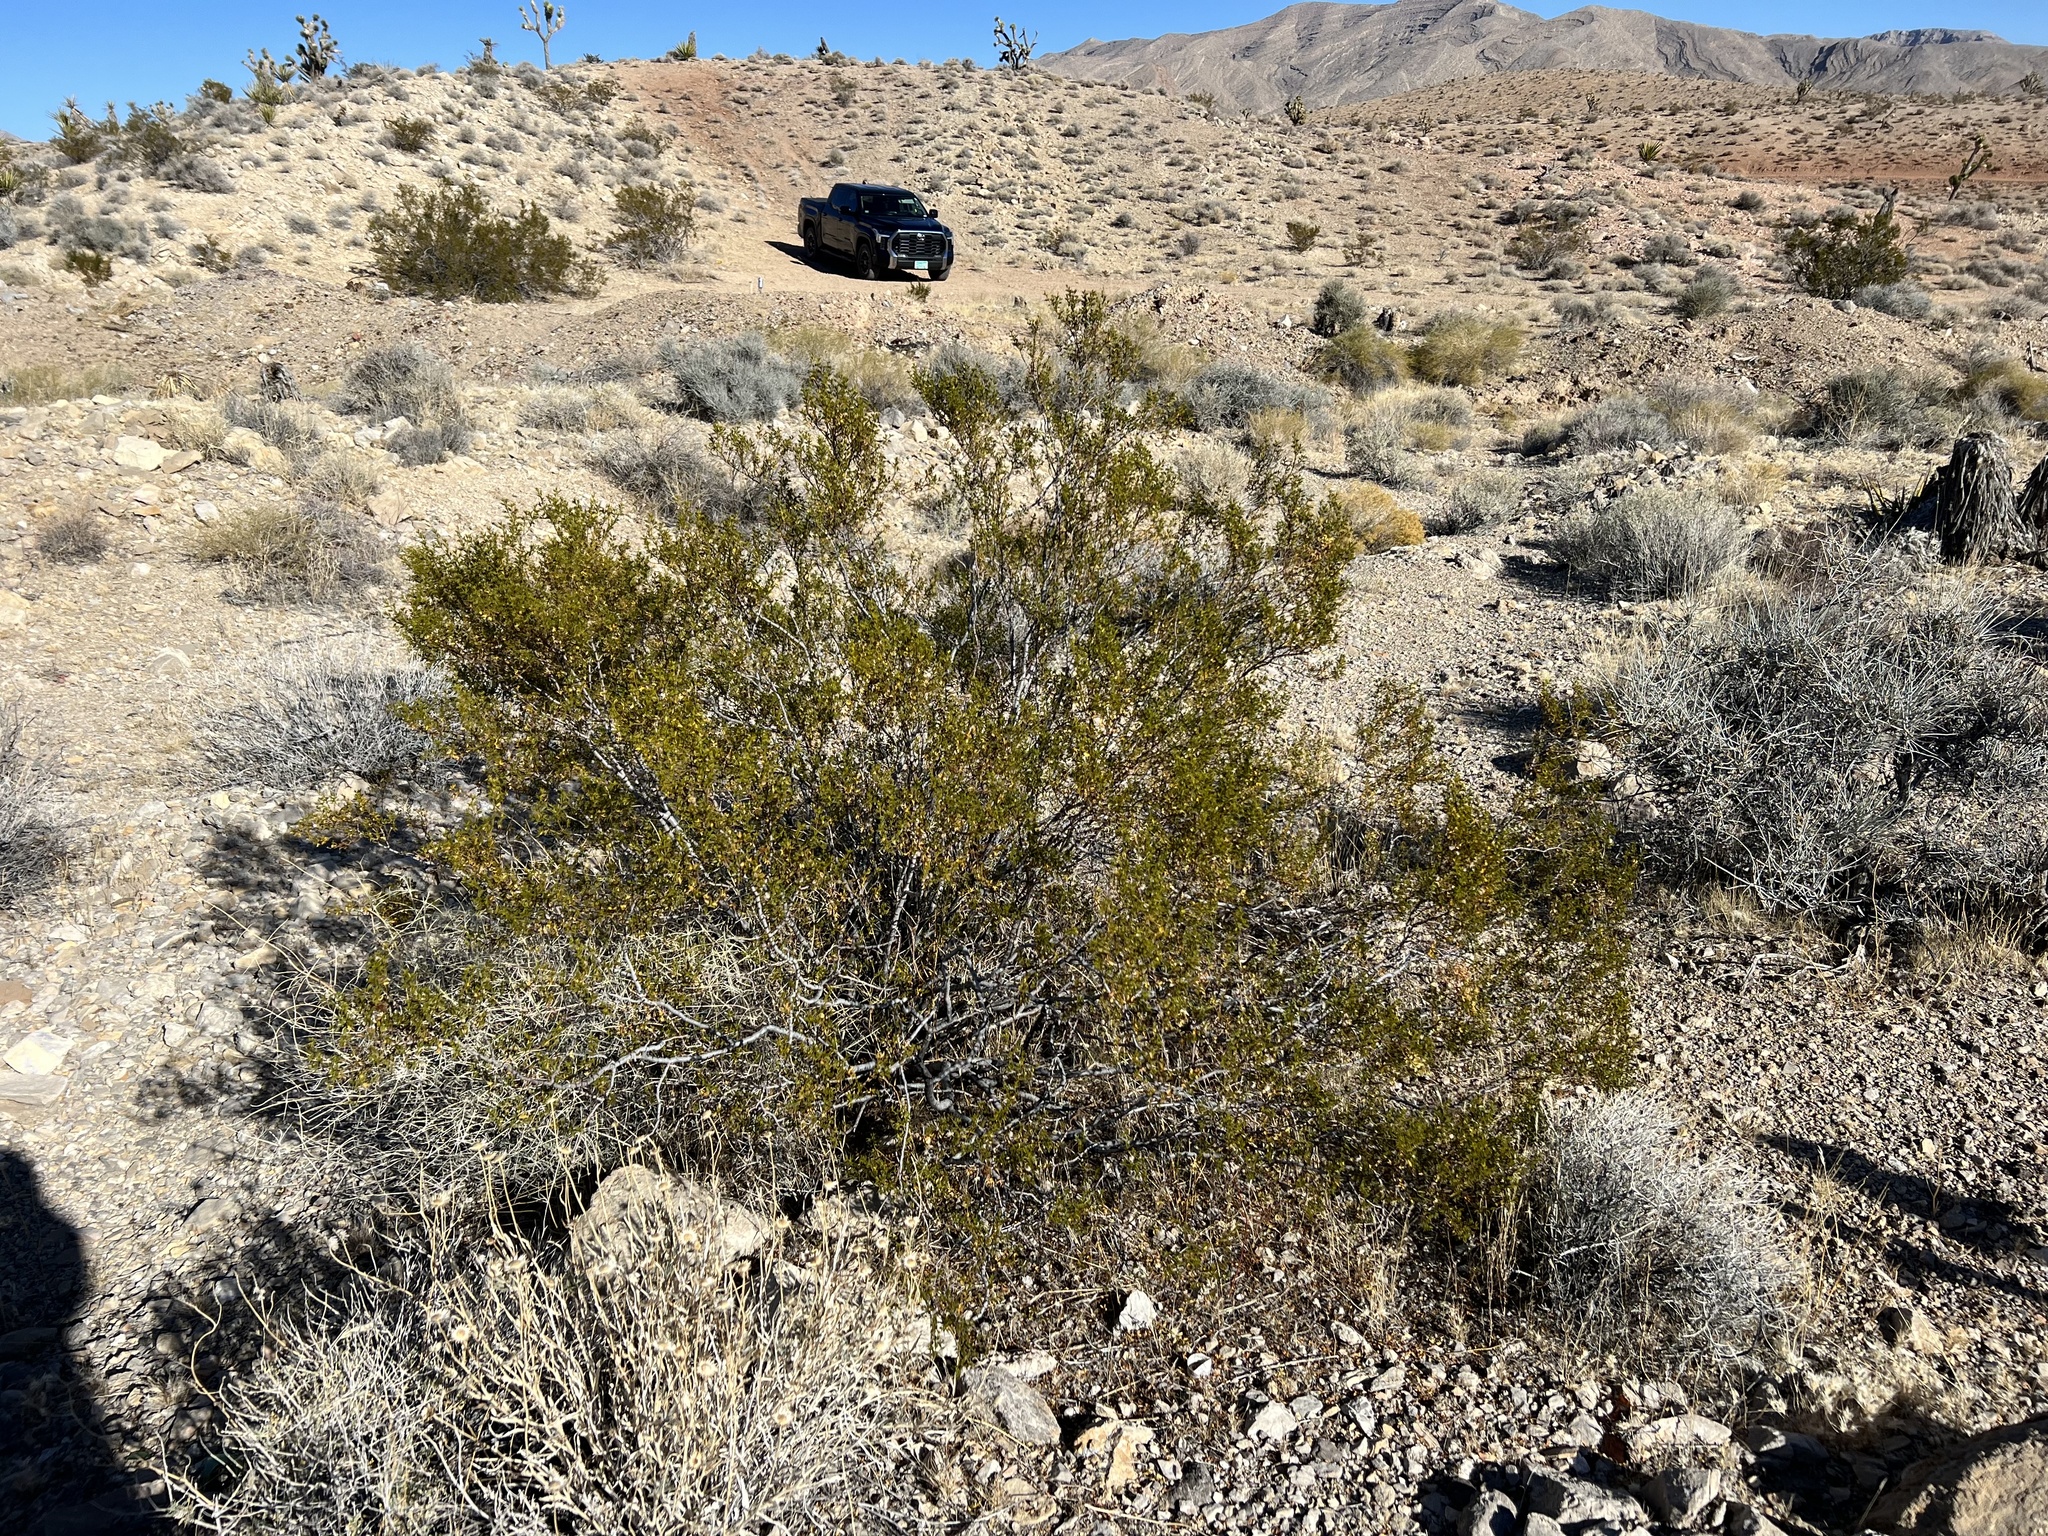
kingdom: Plantae
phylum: Tracheophyta
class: Magnoliopsida
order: Zygophyllales
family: Zygophyllaceae
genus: Larrea
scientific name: Larrea tridentata
